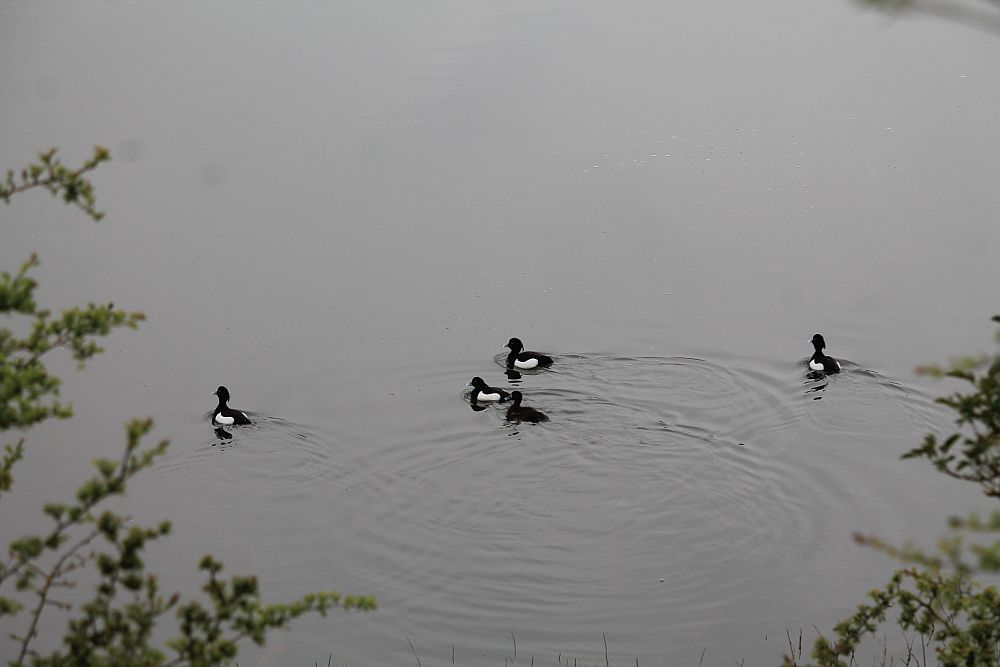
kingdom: Animalia
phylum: Chordata
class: Aves
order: Anseriformes
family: Anatidae
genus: Aythya
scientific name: Aythya fuligula
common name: Tufted duck
